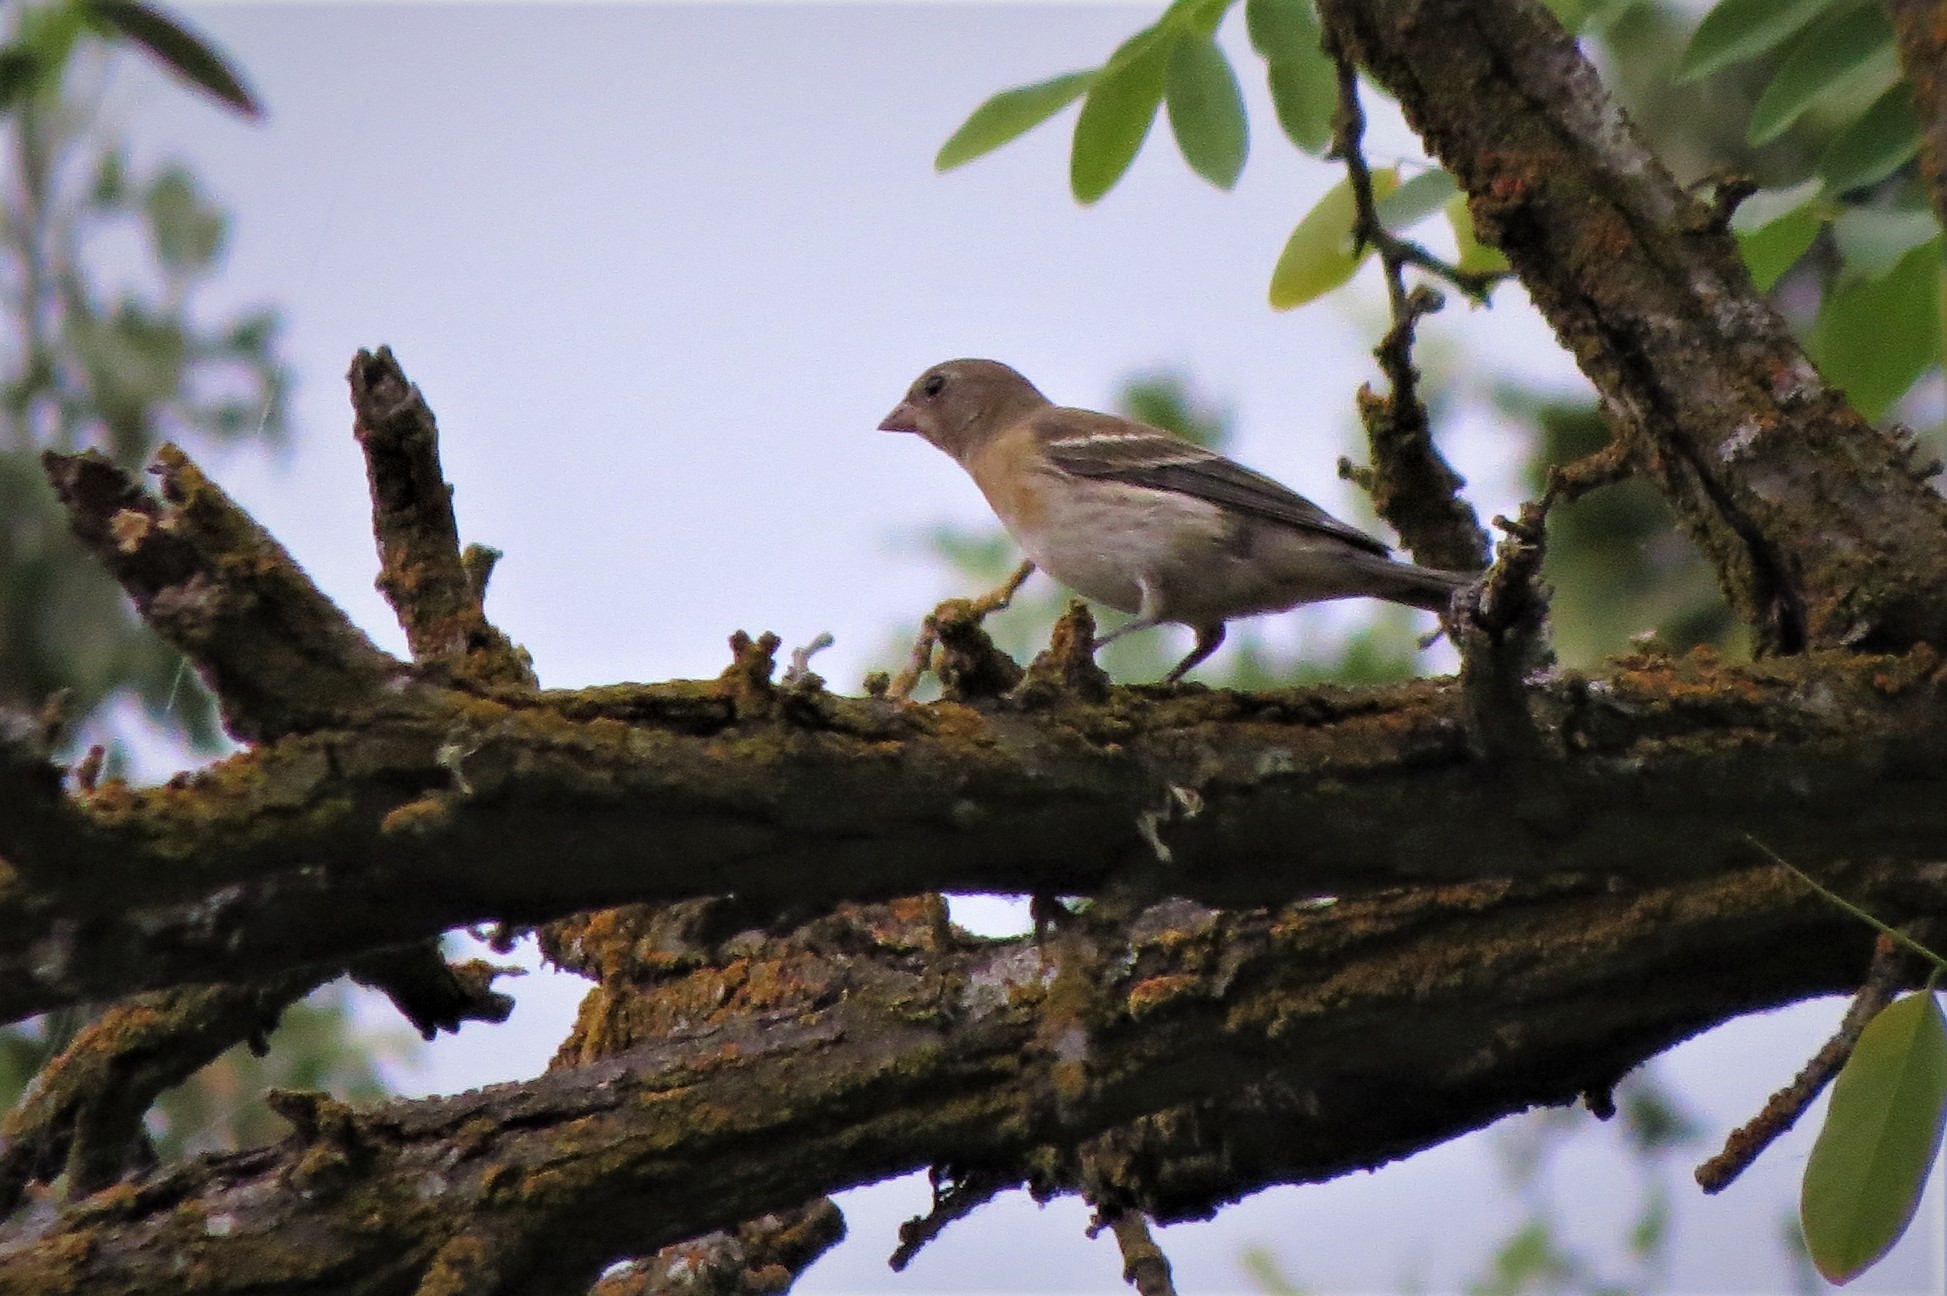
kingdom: Animalia
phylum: Chordata
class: Aves
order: Passeriformes
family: Cardinalidae
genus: Passerina
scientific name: Passerina amoena
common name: Lazuli bunting
